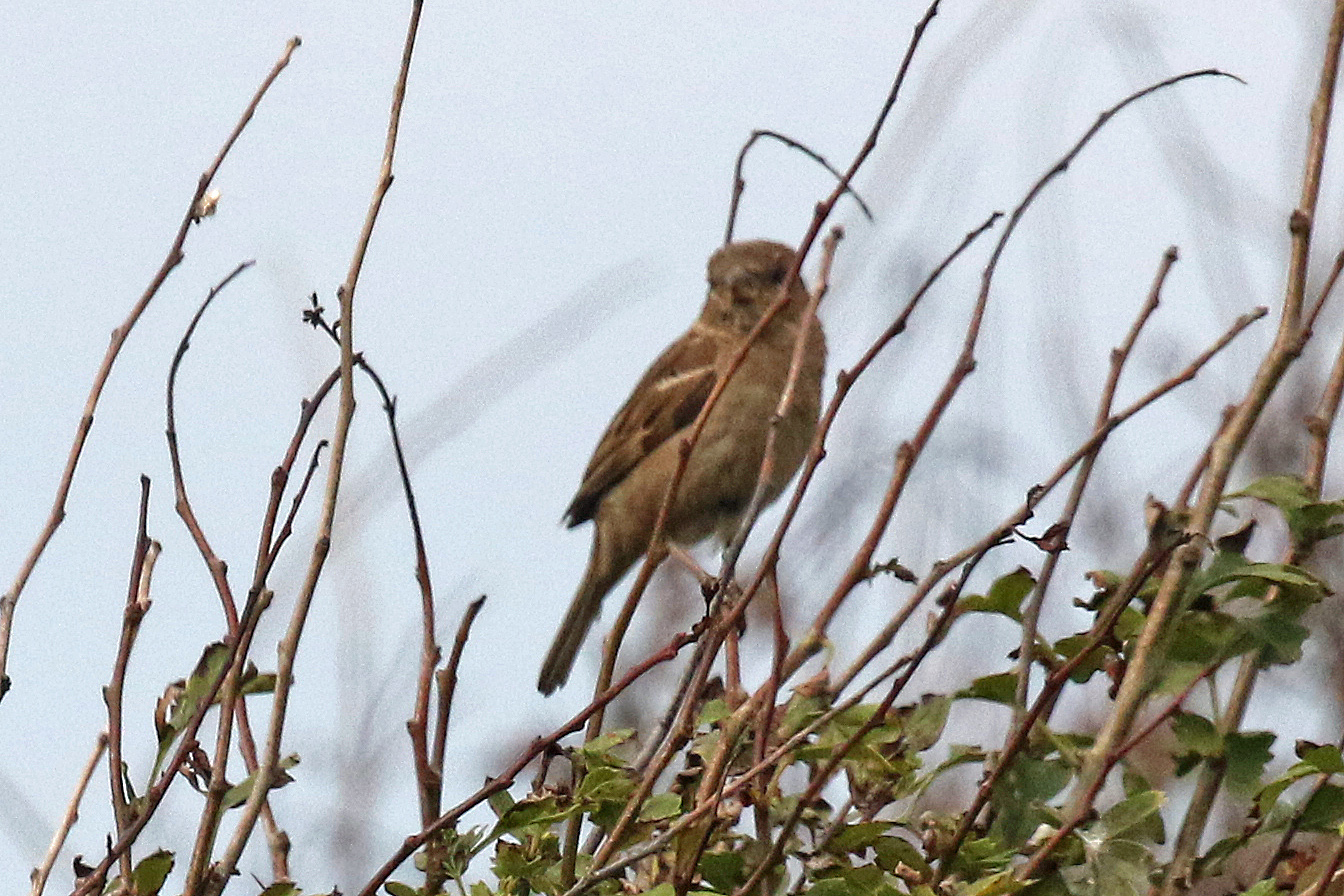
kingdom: Animalia
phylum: Chordata
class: Aves
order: Passeriformes
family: Passeridae
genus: Passer
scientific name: Passer domesticus
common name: House sparrow
